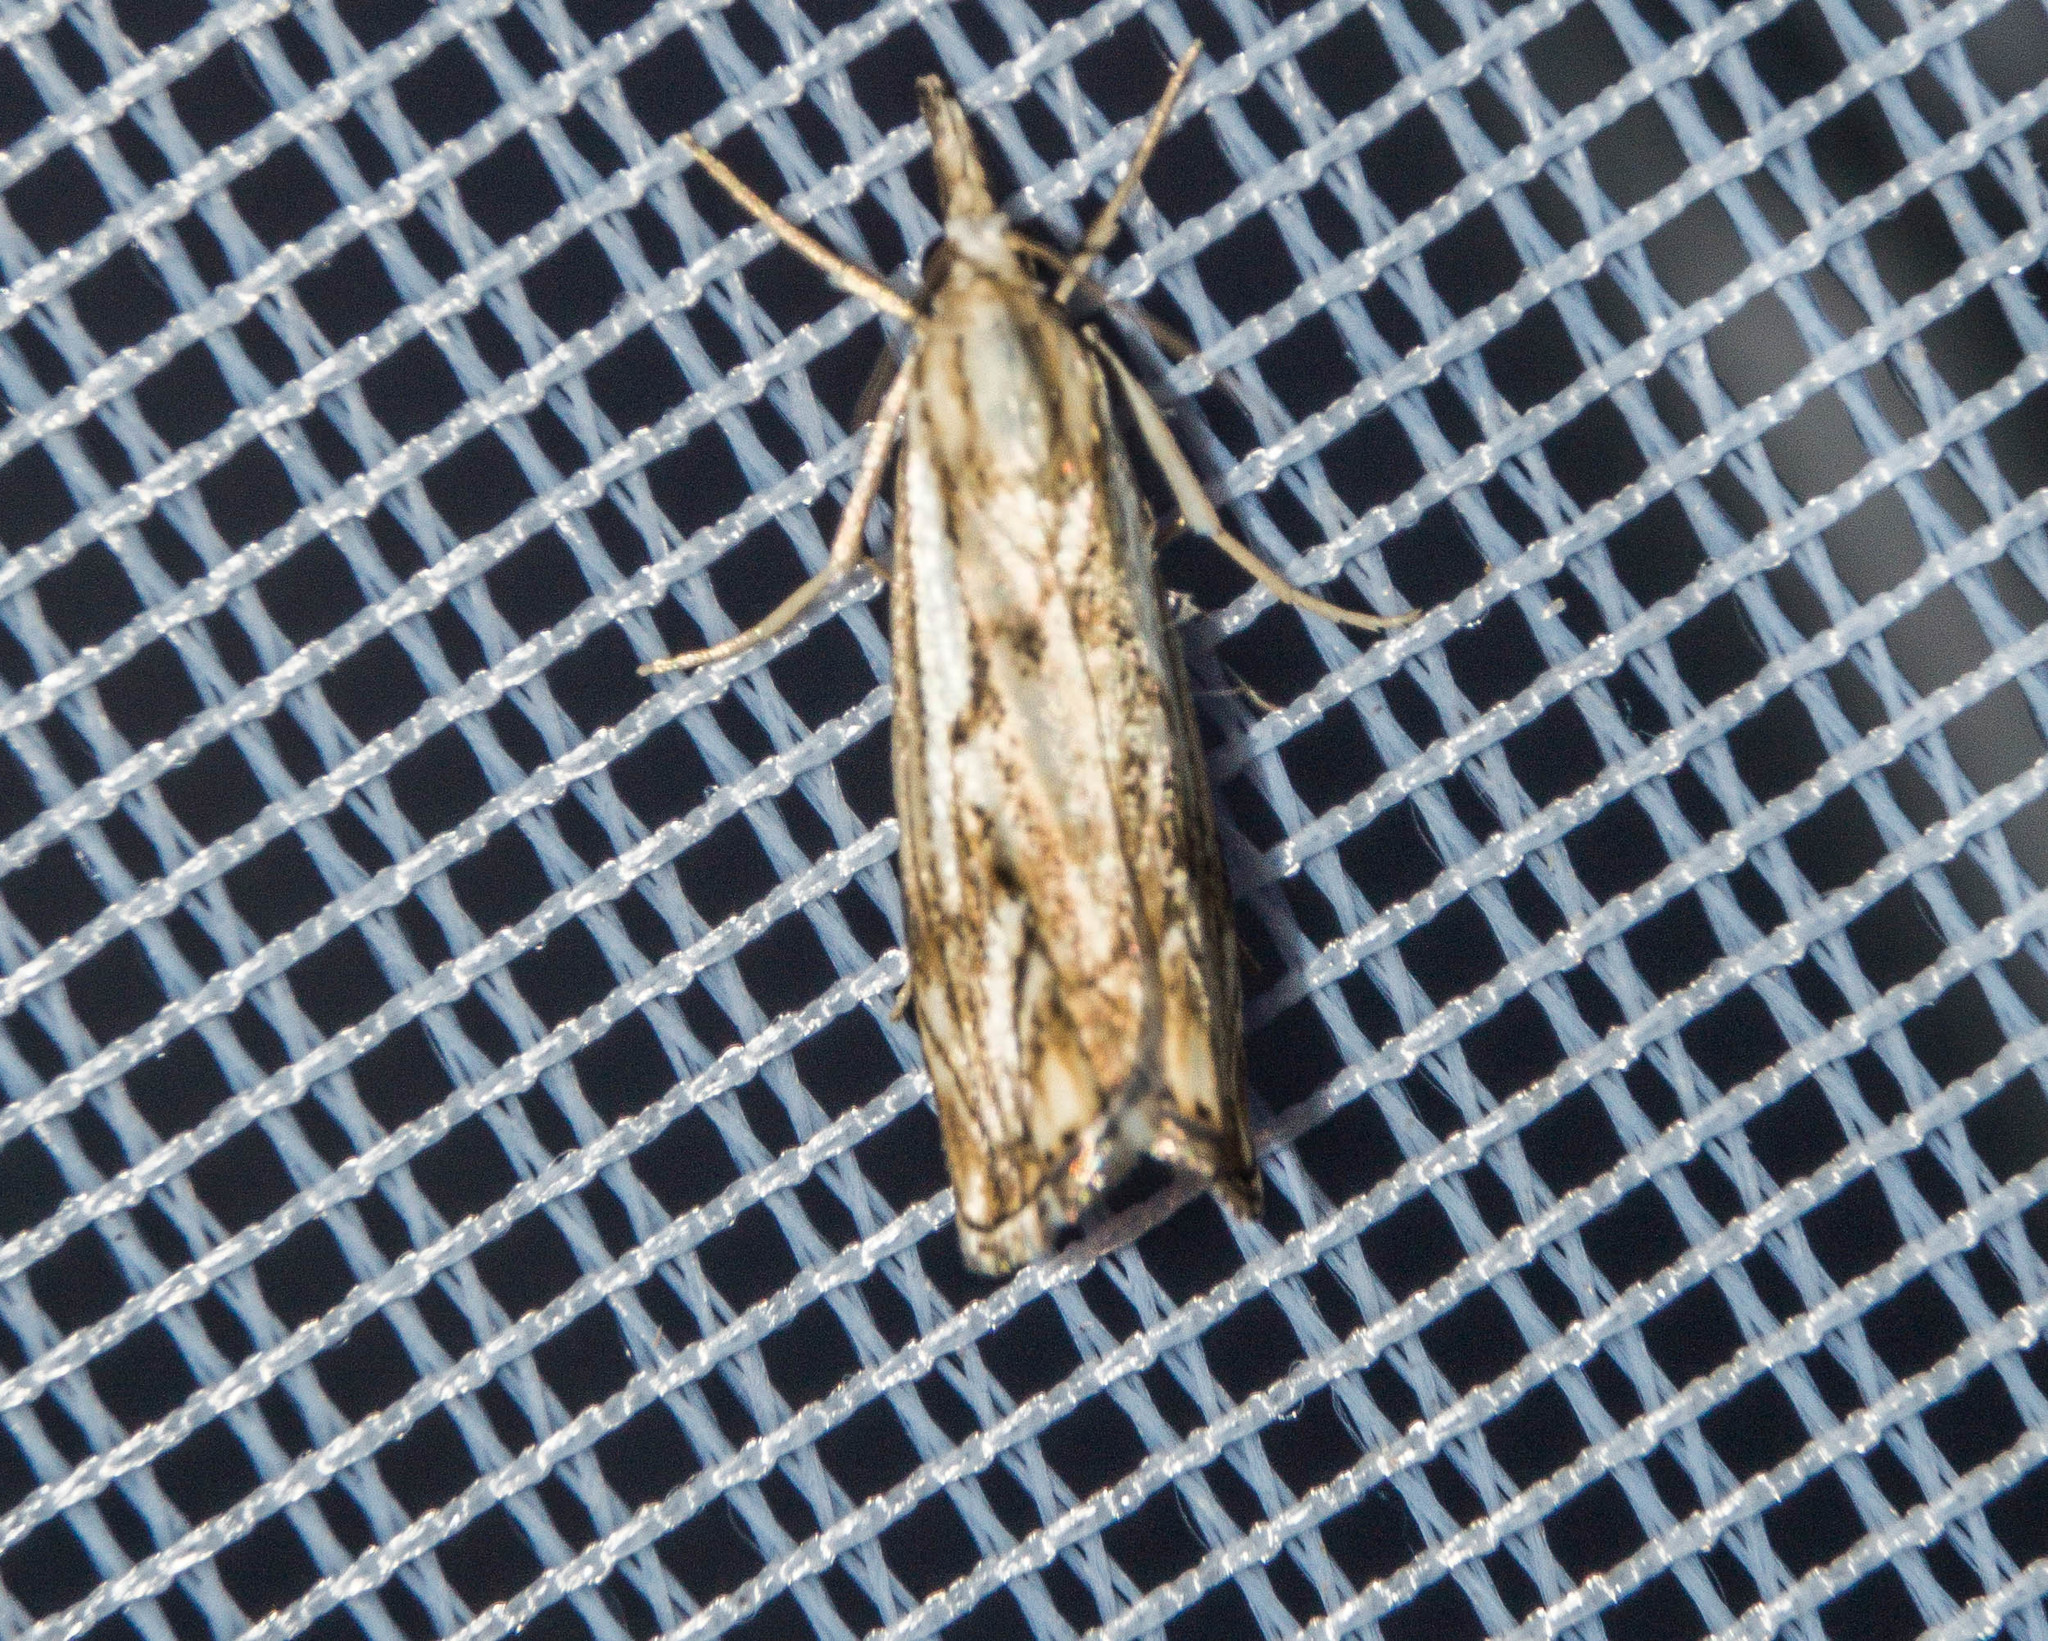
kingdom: Animalia
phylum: Arthropoda
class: Insecta
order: Lepidoptera
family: Crambidae
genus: Catoptria
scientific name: Catoptria falsella
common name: Chequered grass-veneer
